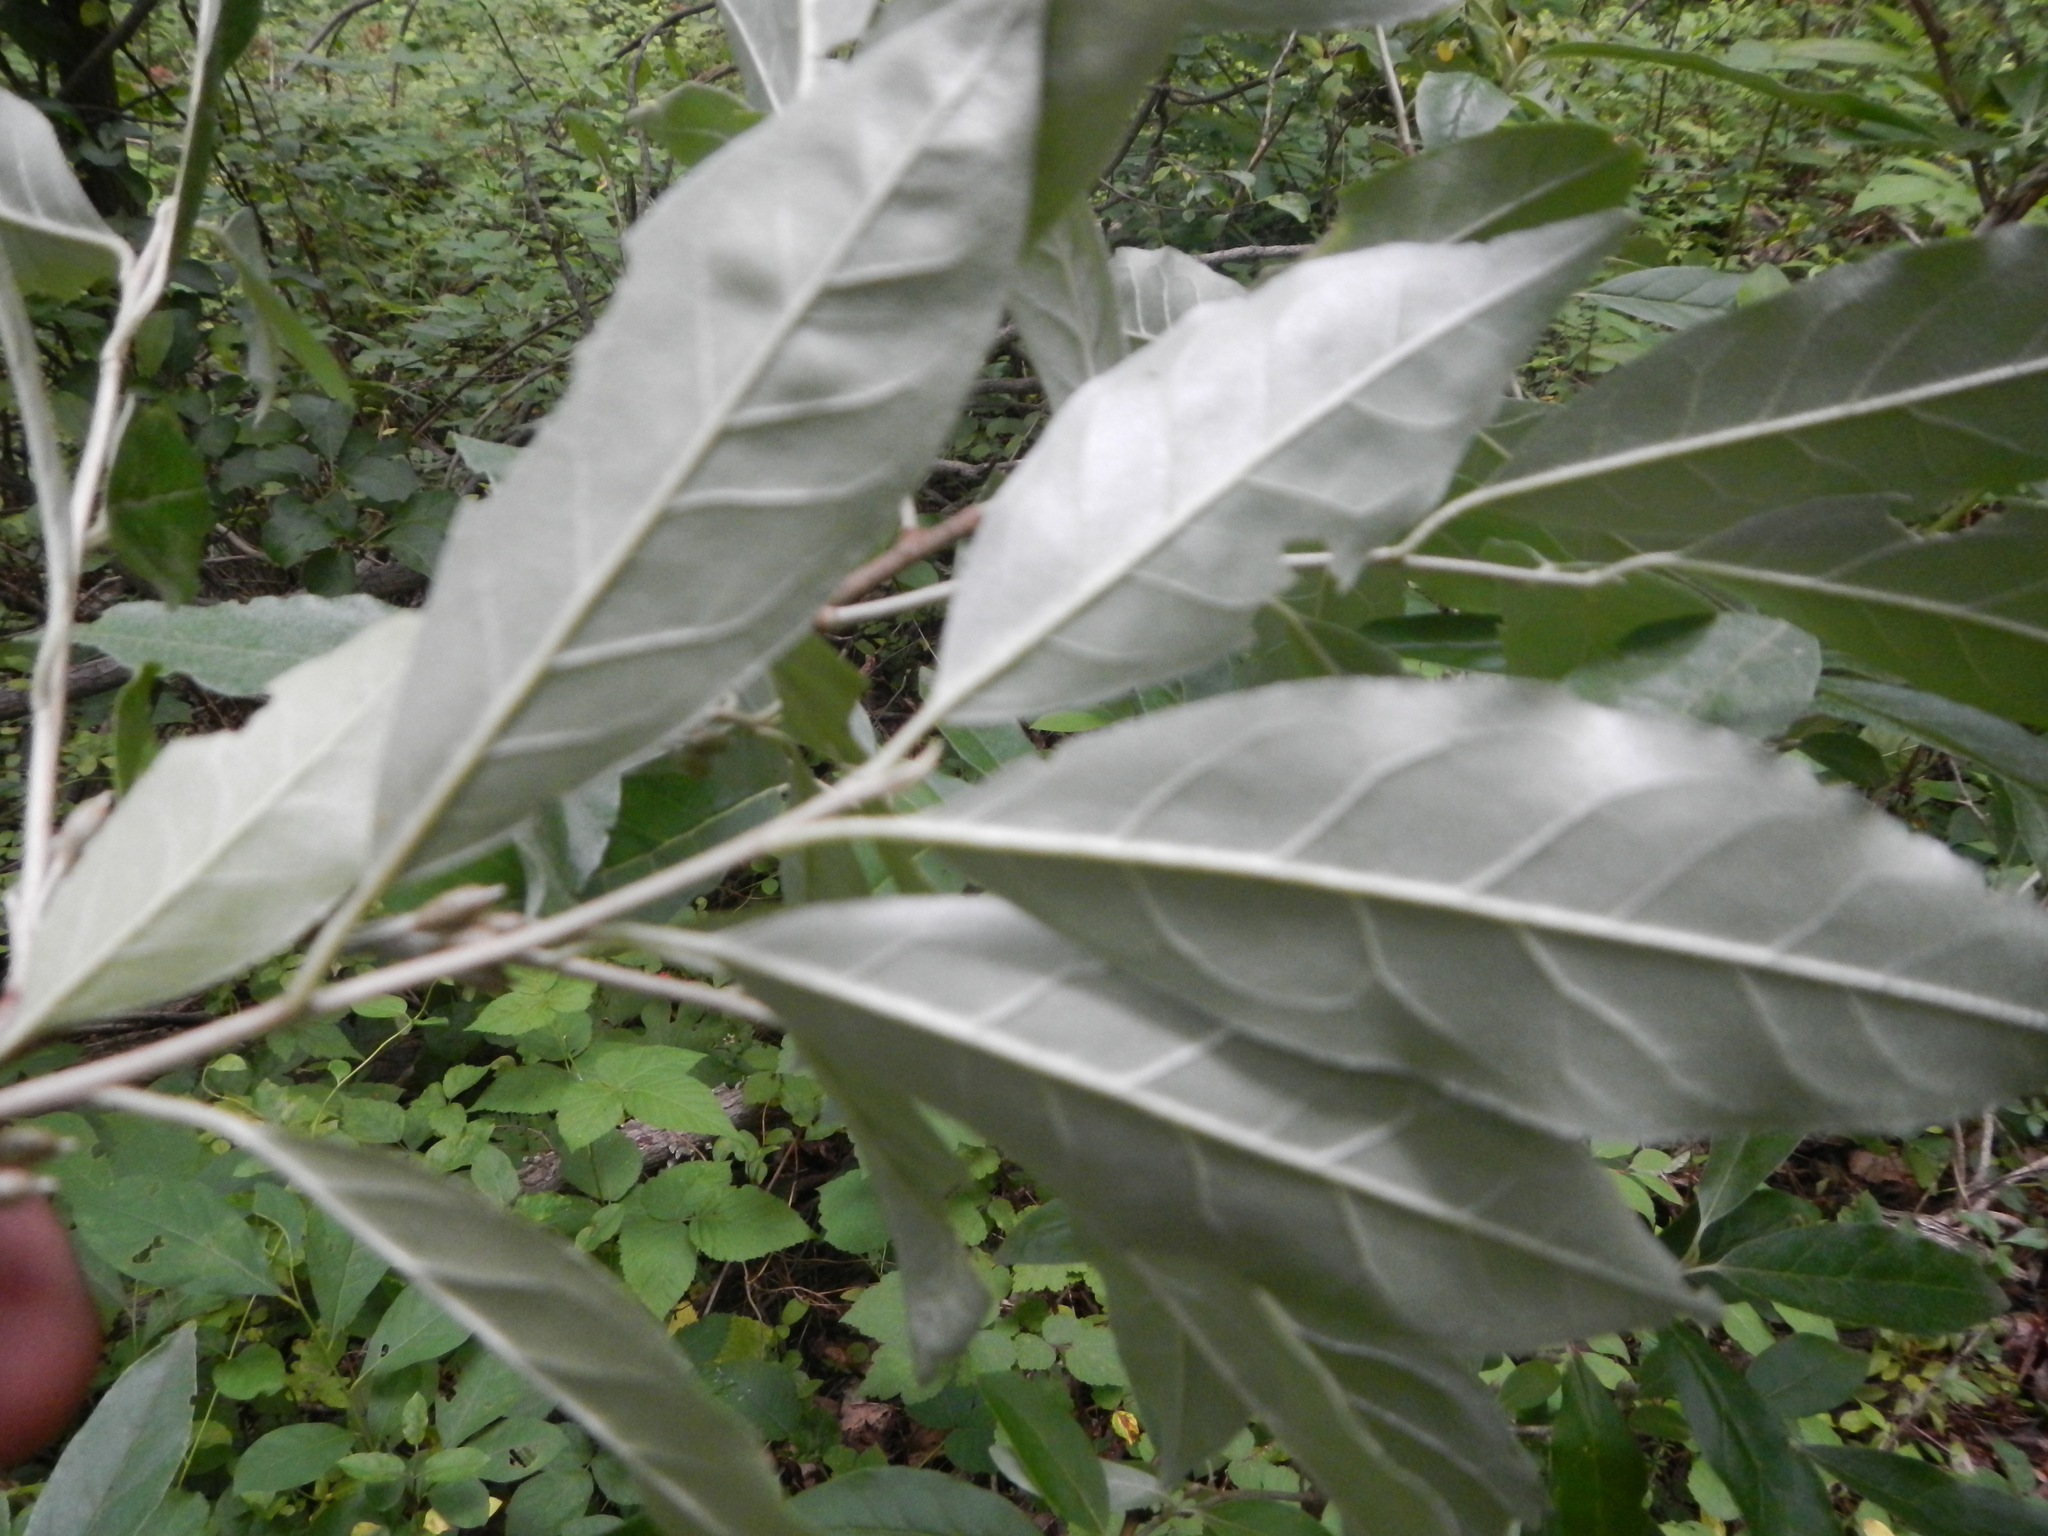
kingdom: Plantae
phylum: Tracheophyta
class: Magnoliopsida
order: Rosales
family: Elaeagnaceae
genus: Elaeagnus
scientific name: Elaeagnus umbellata
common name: Autumn olive
